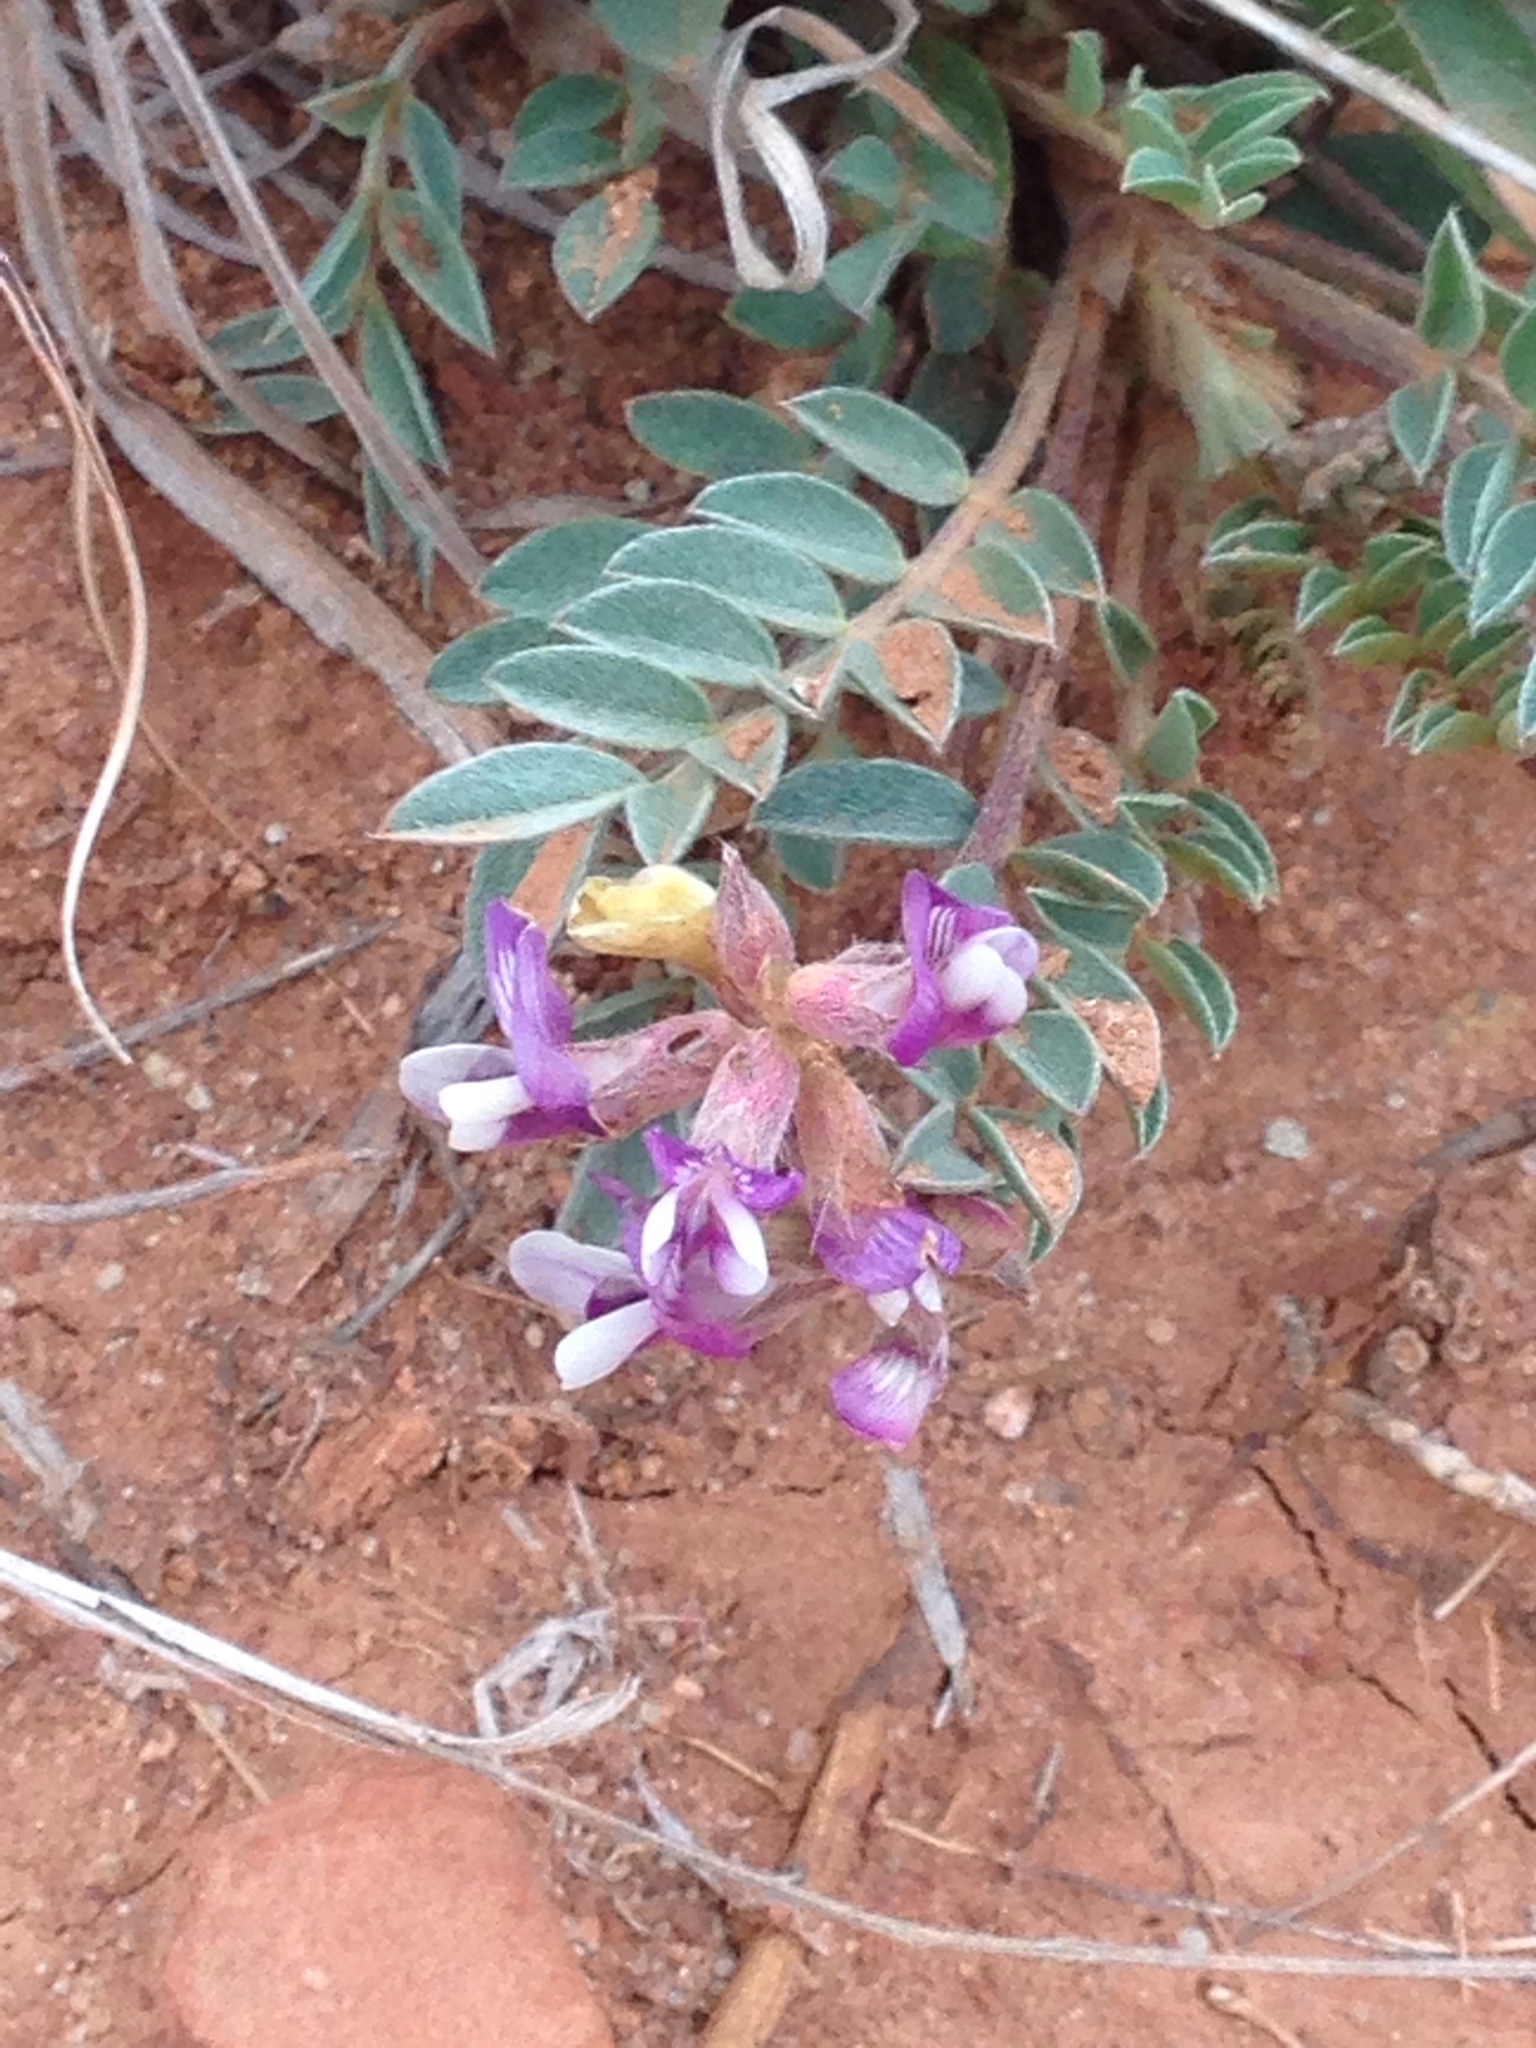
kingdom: Plantae
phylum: Tracheophyta
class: Magnoliopsida
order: Fabales
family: Fabaceae
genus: Astragalus
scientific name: Astragalus lotiflorus
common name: Lotus milk-vetch
